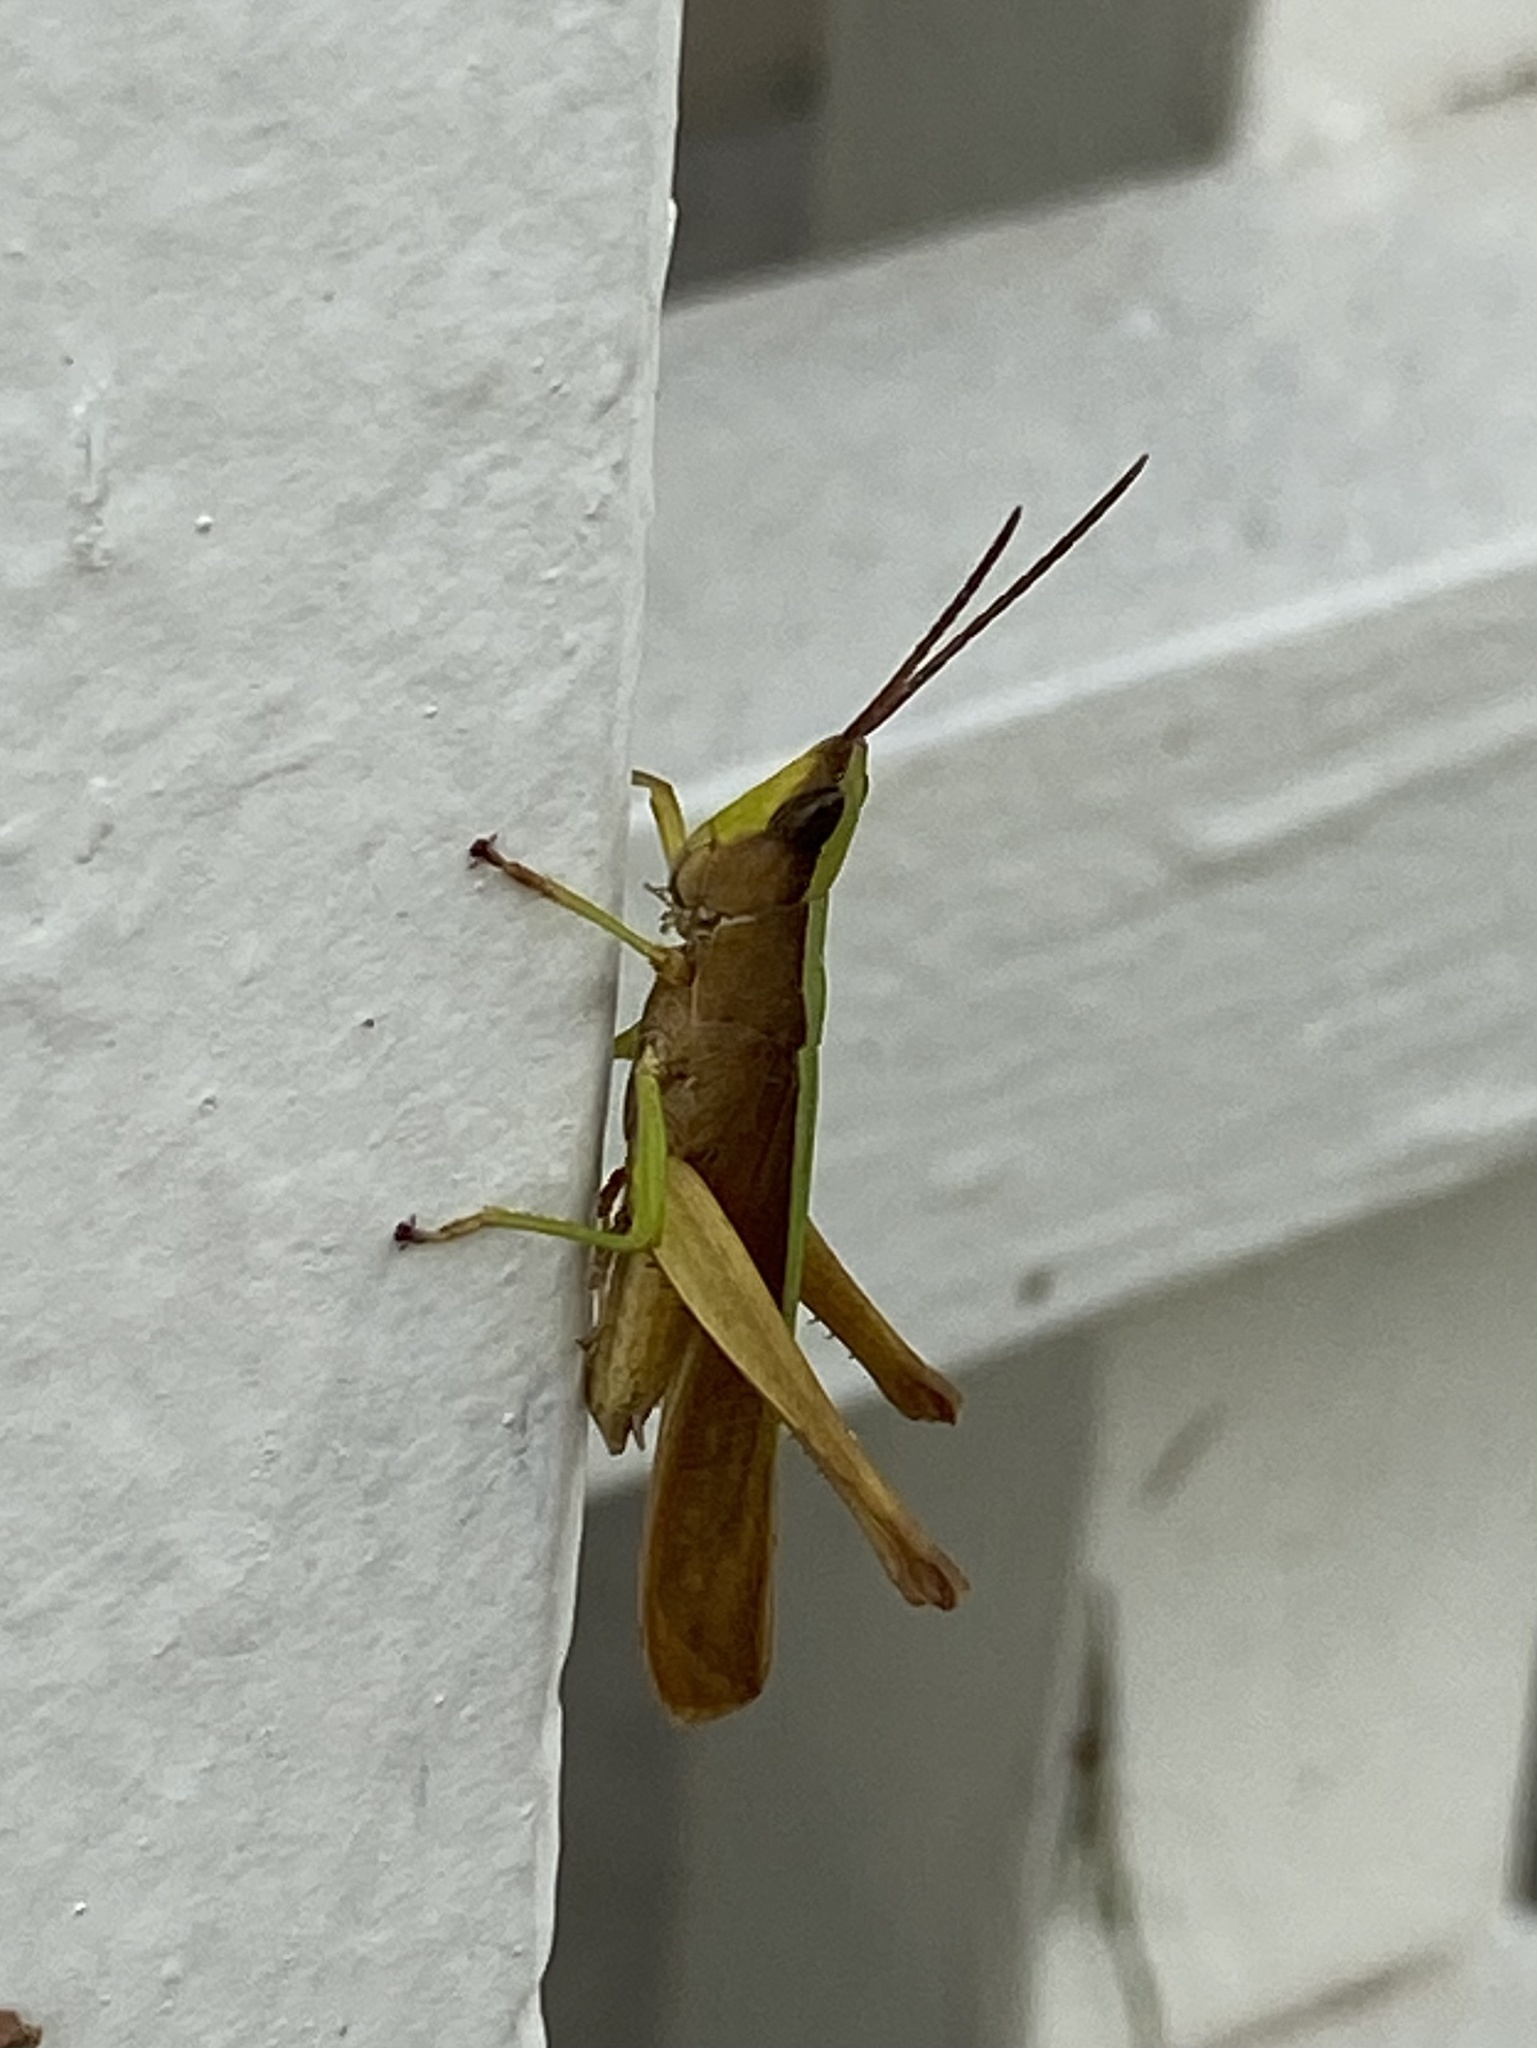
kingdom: Animalia
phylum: Arthropoda
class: Insecta
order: Orthoptera
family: Acrididae
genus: Metaleptea
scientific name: Metaleptea brevicornis
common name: Clipped-wing grasshopper
